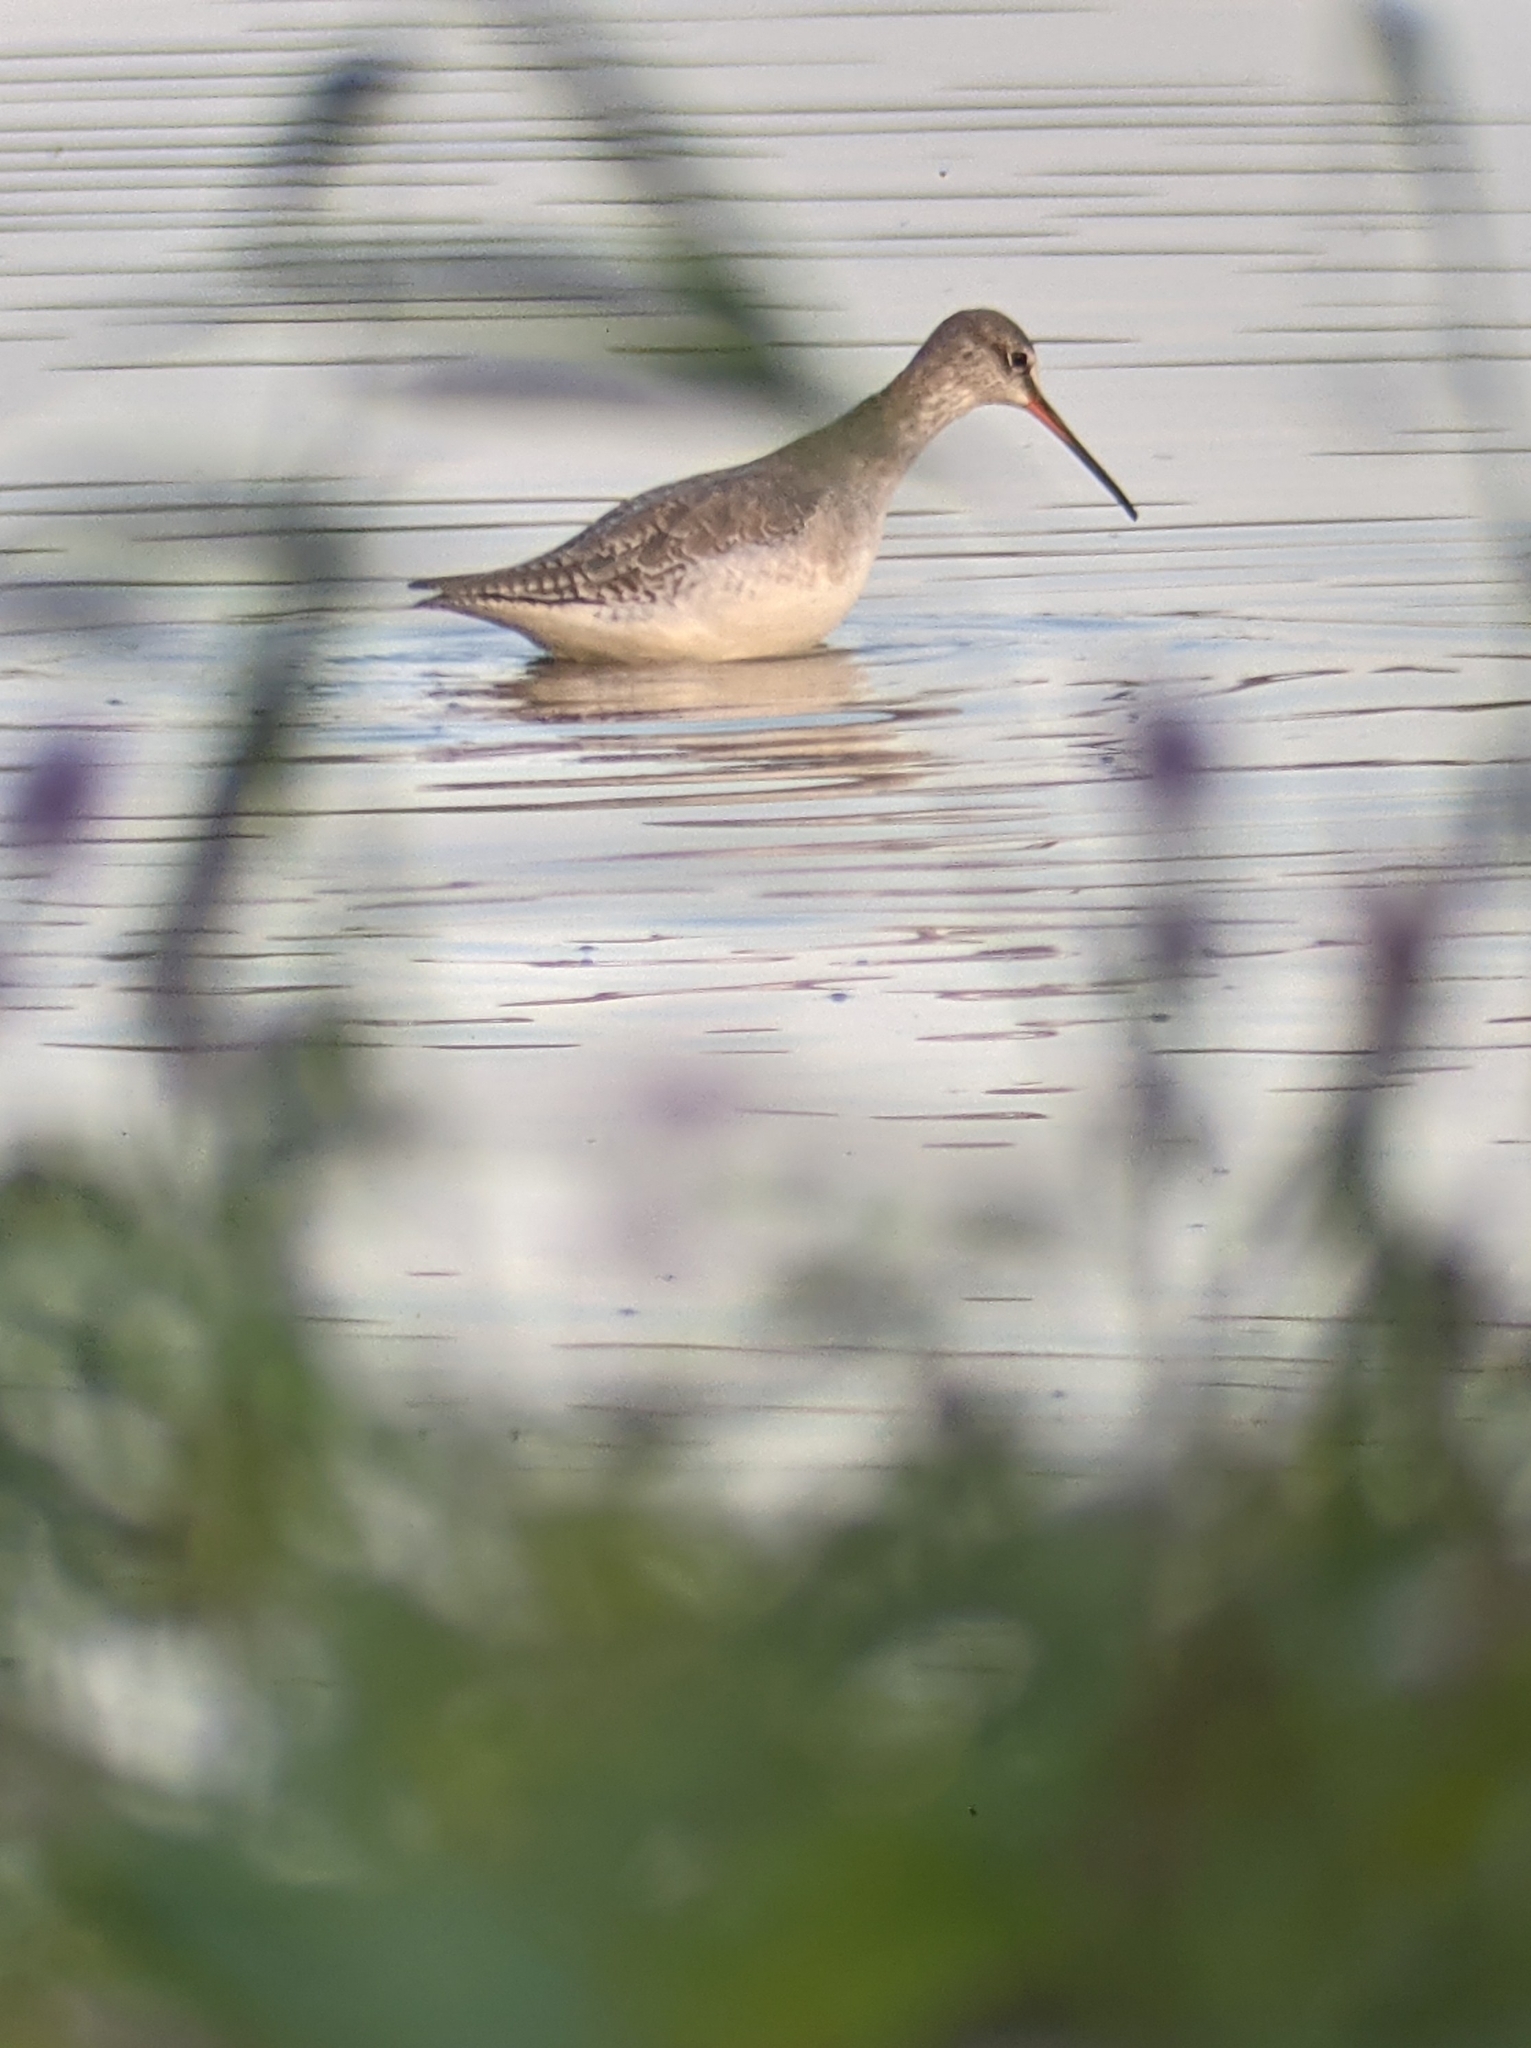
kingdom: Animalia
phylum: Chordata
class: Aves
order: Charadriiformes
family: Scolopacidae
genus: Tringa
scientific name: Tringa erythropus
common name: Spotted redshank
